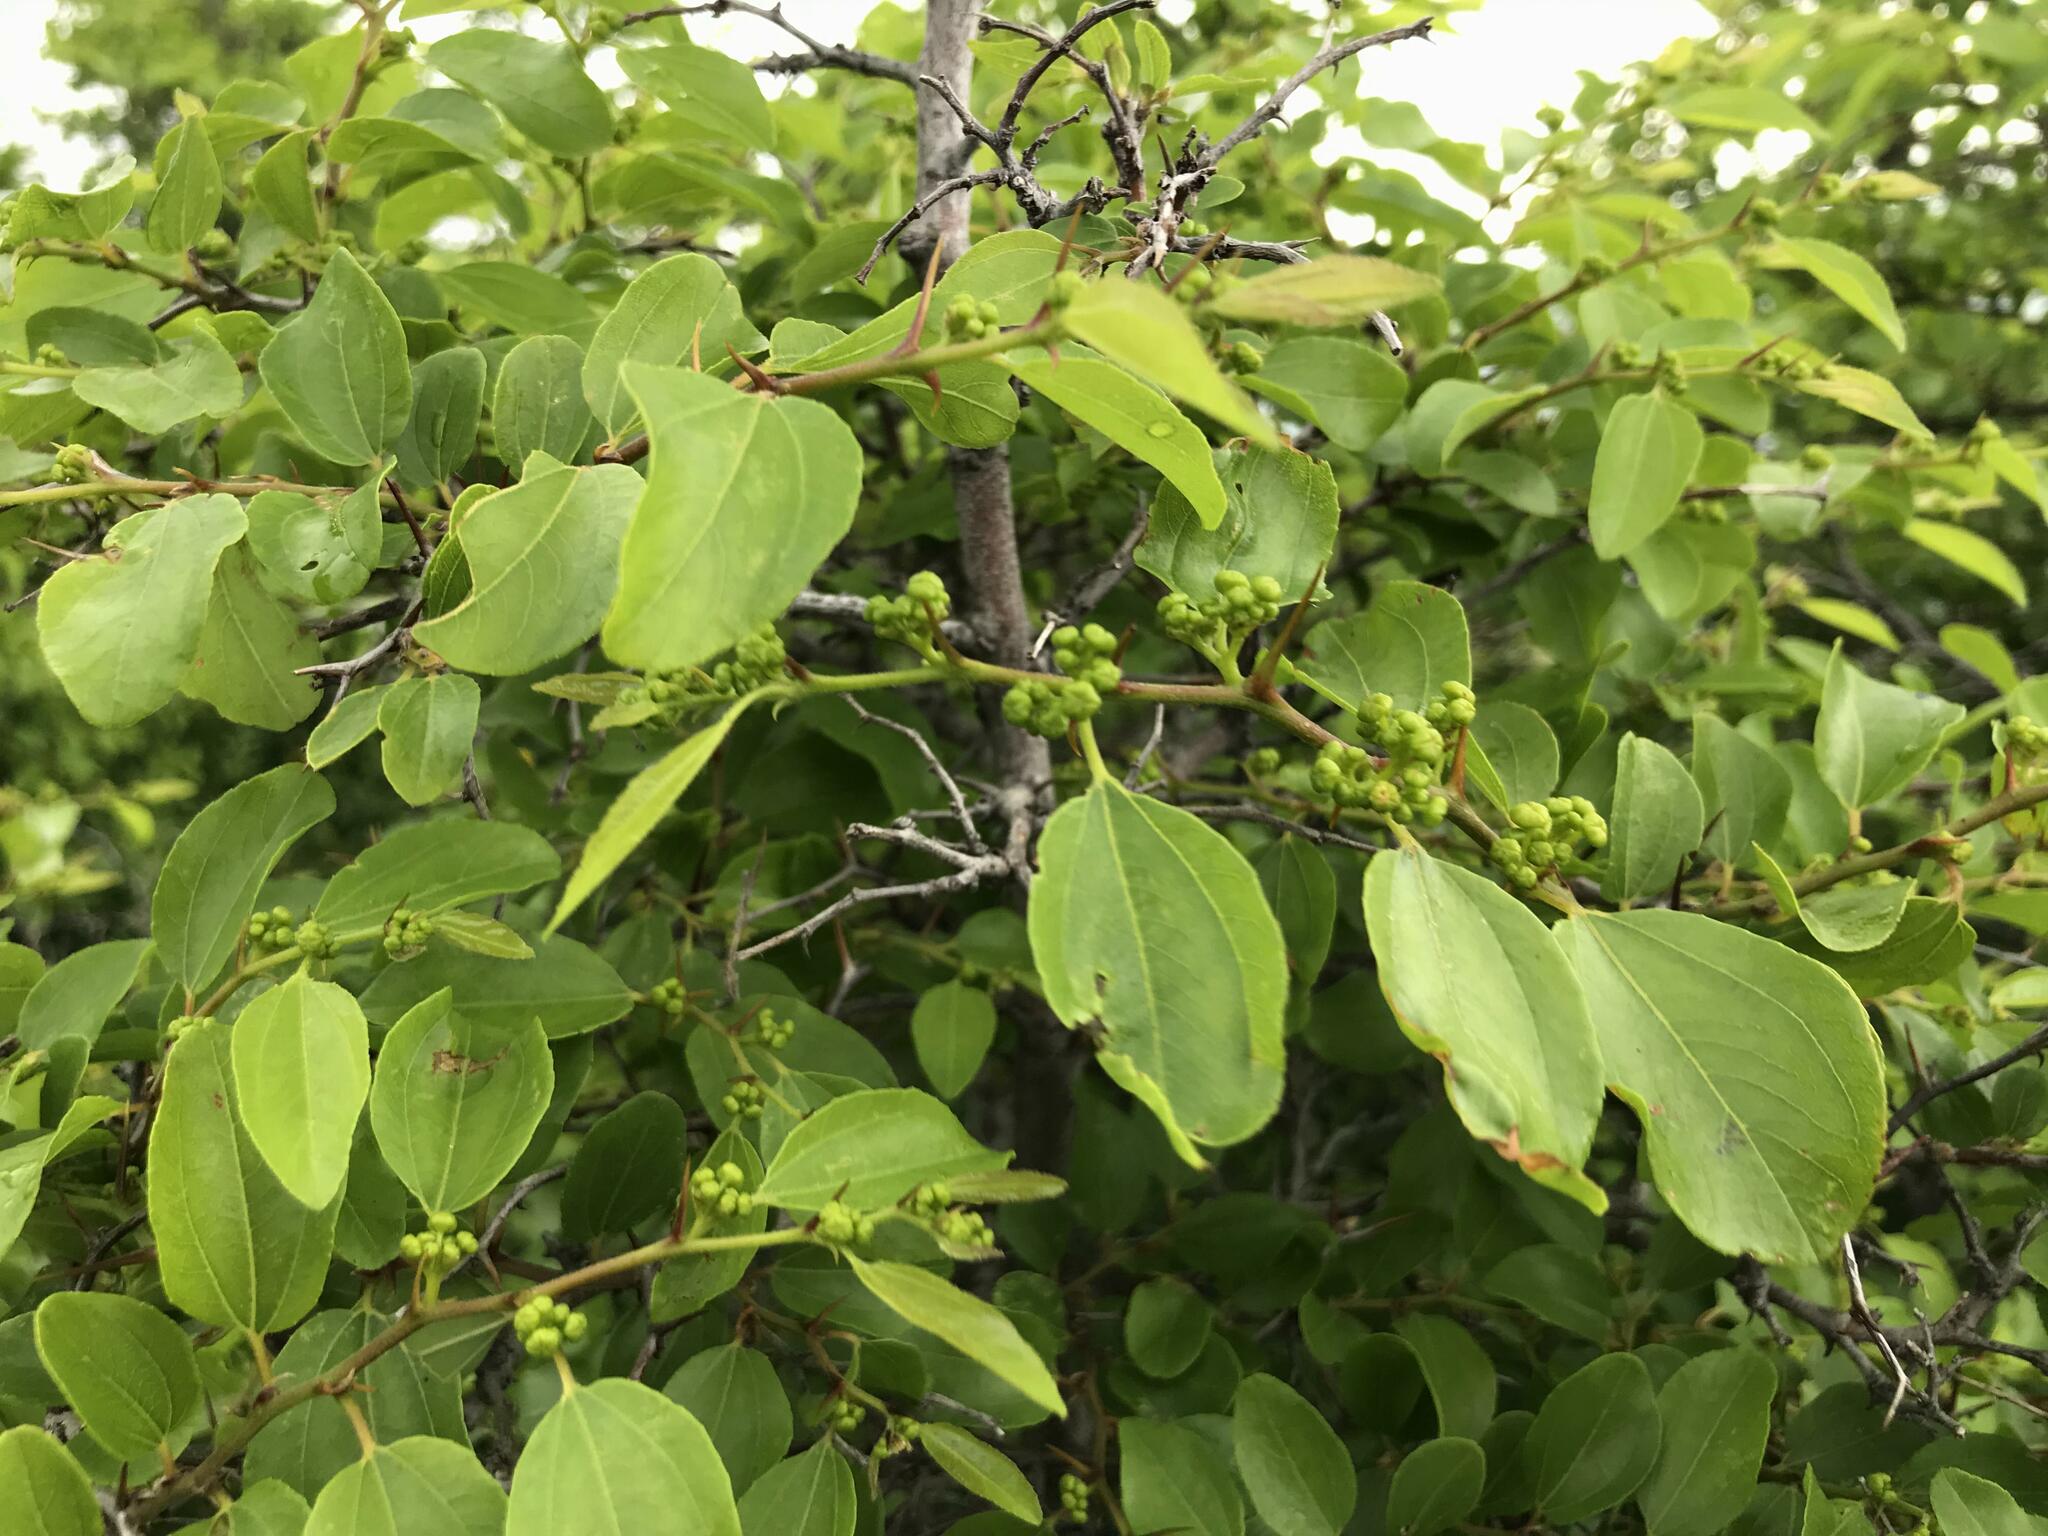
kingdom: Plantae
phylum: Tracheophyta
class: Magnoliopsida
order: Rosales
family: Rhamnaceae
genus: Paliurus
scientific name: Paliurus spina-christi
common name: Jeruselem thorn
